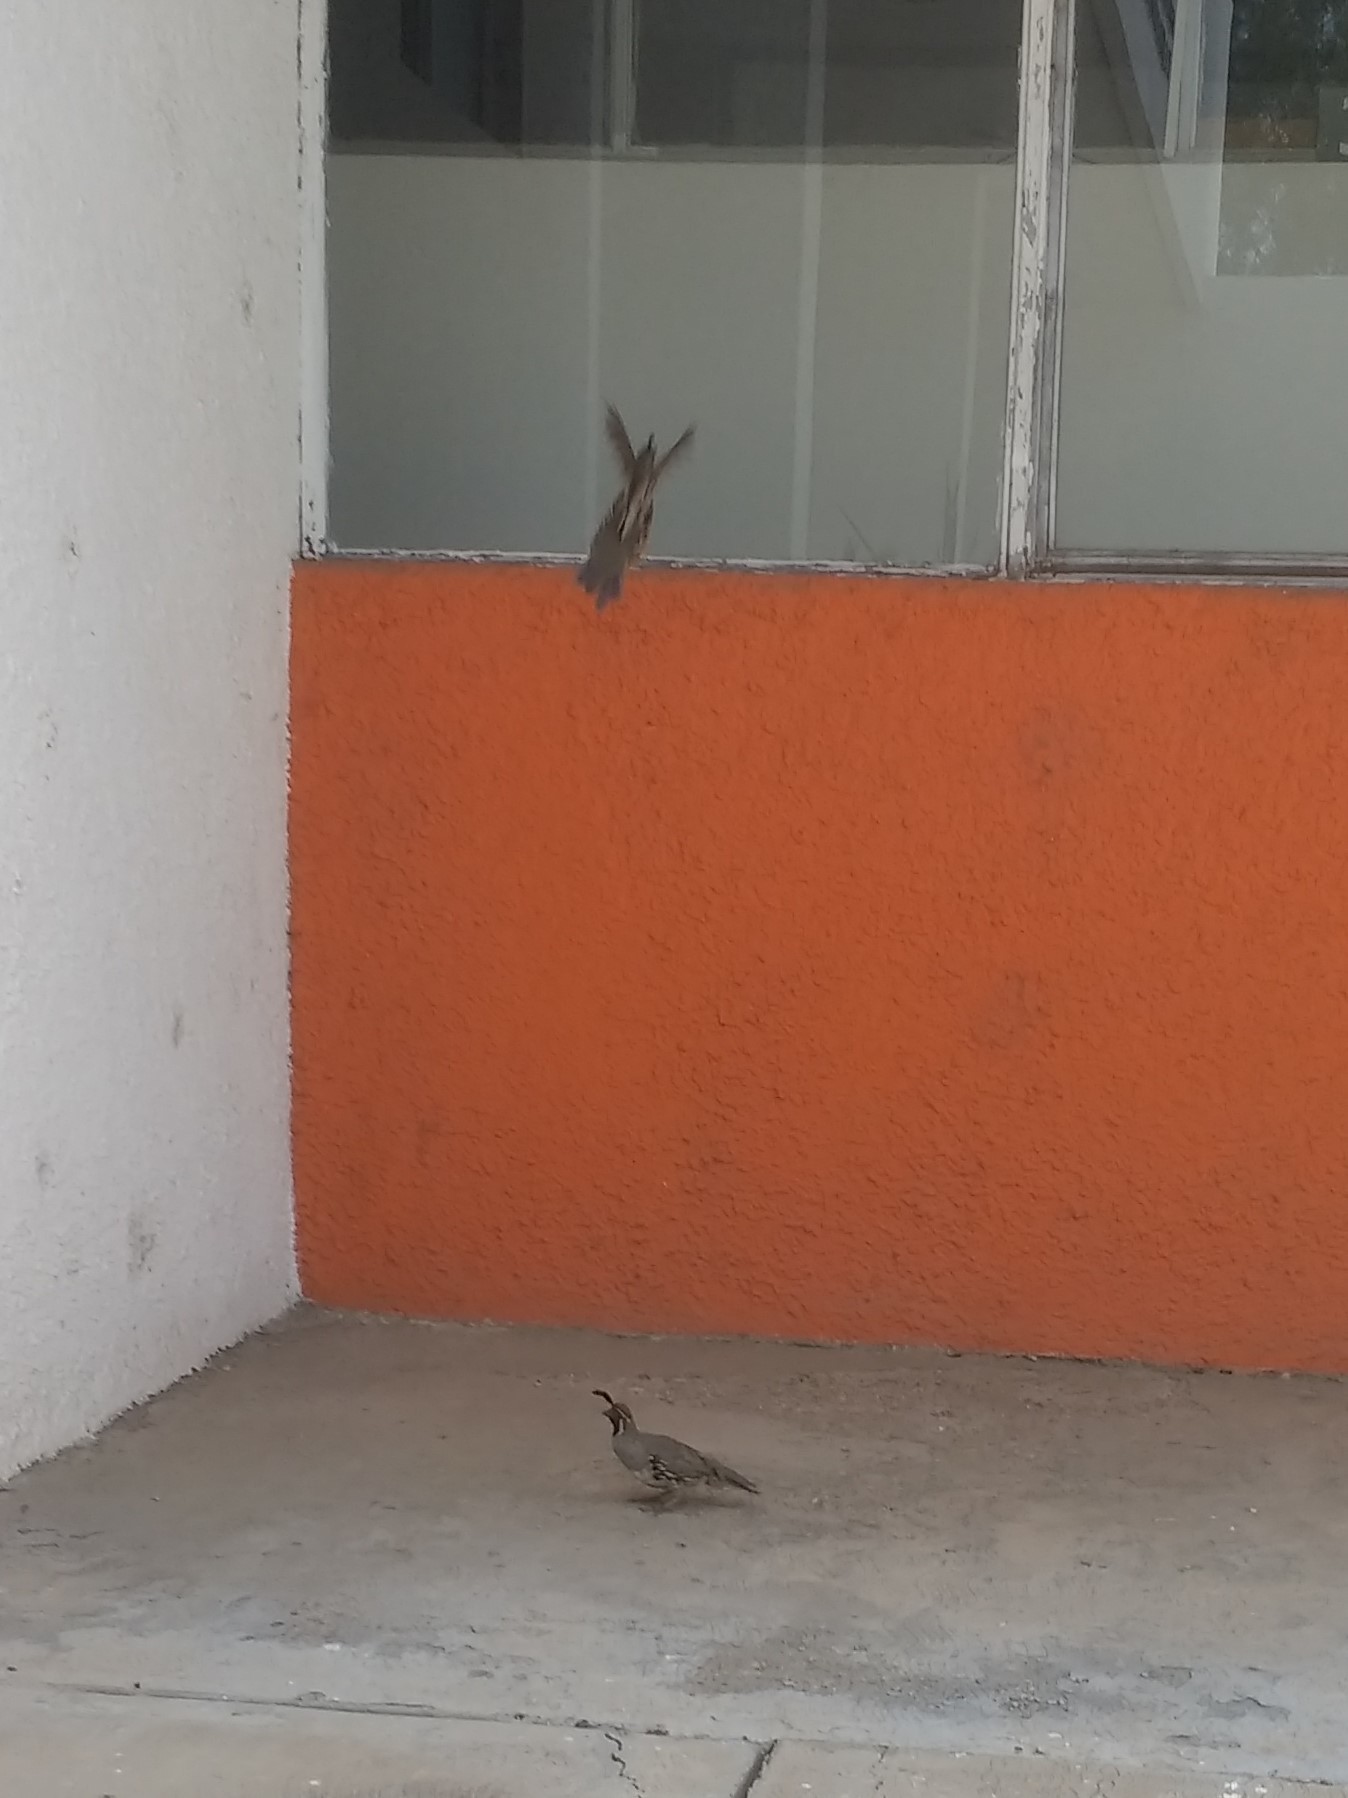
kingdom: Animalia
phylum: Chordata
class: Aves
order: Galliformes
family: Odontophoridae
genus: Callipepla
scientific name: Callipepla gambelii
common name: Gambel's quail
